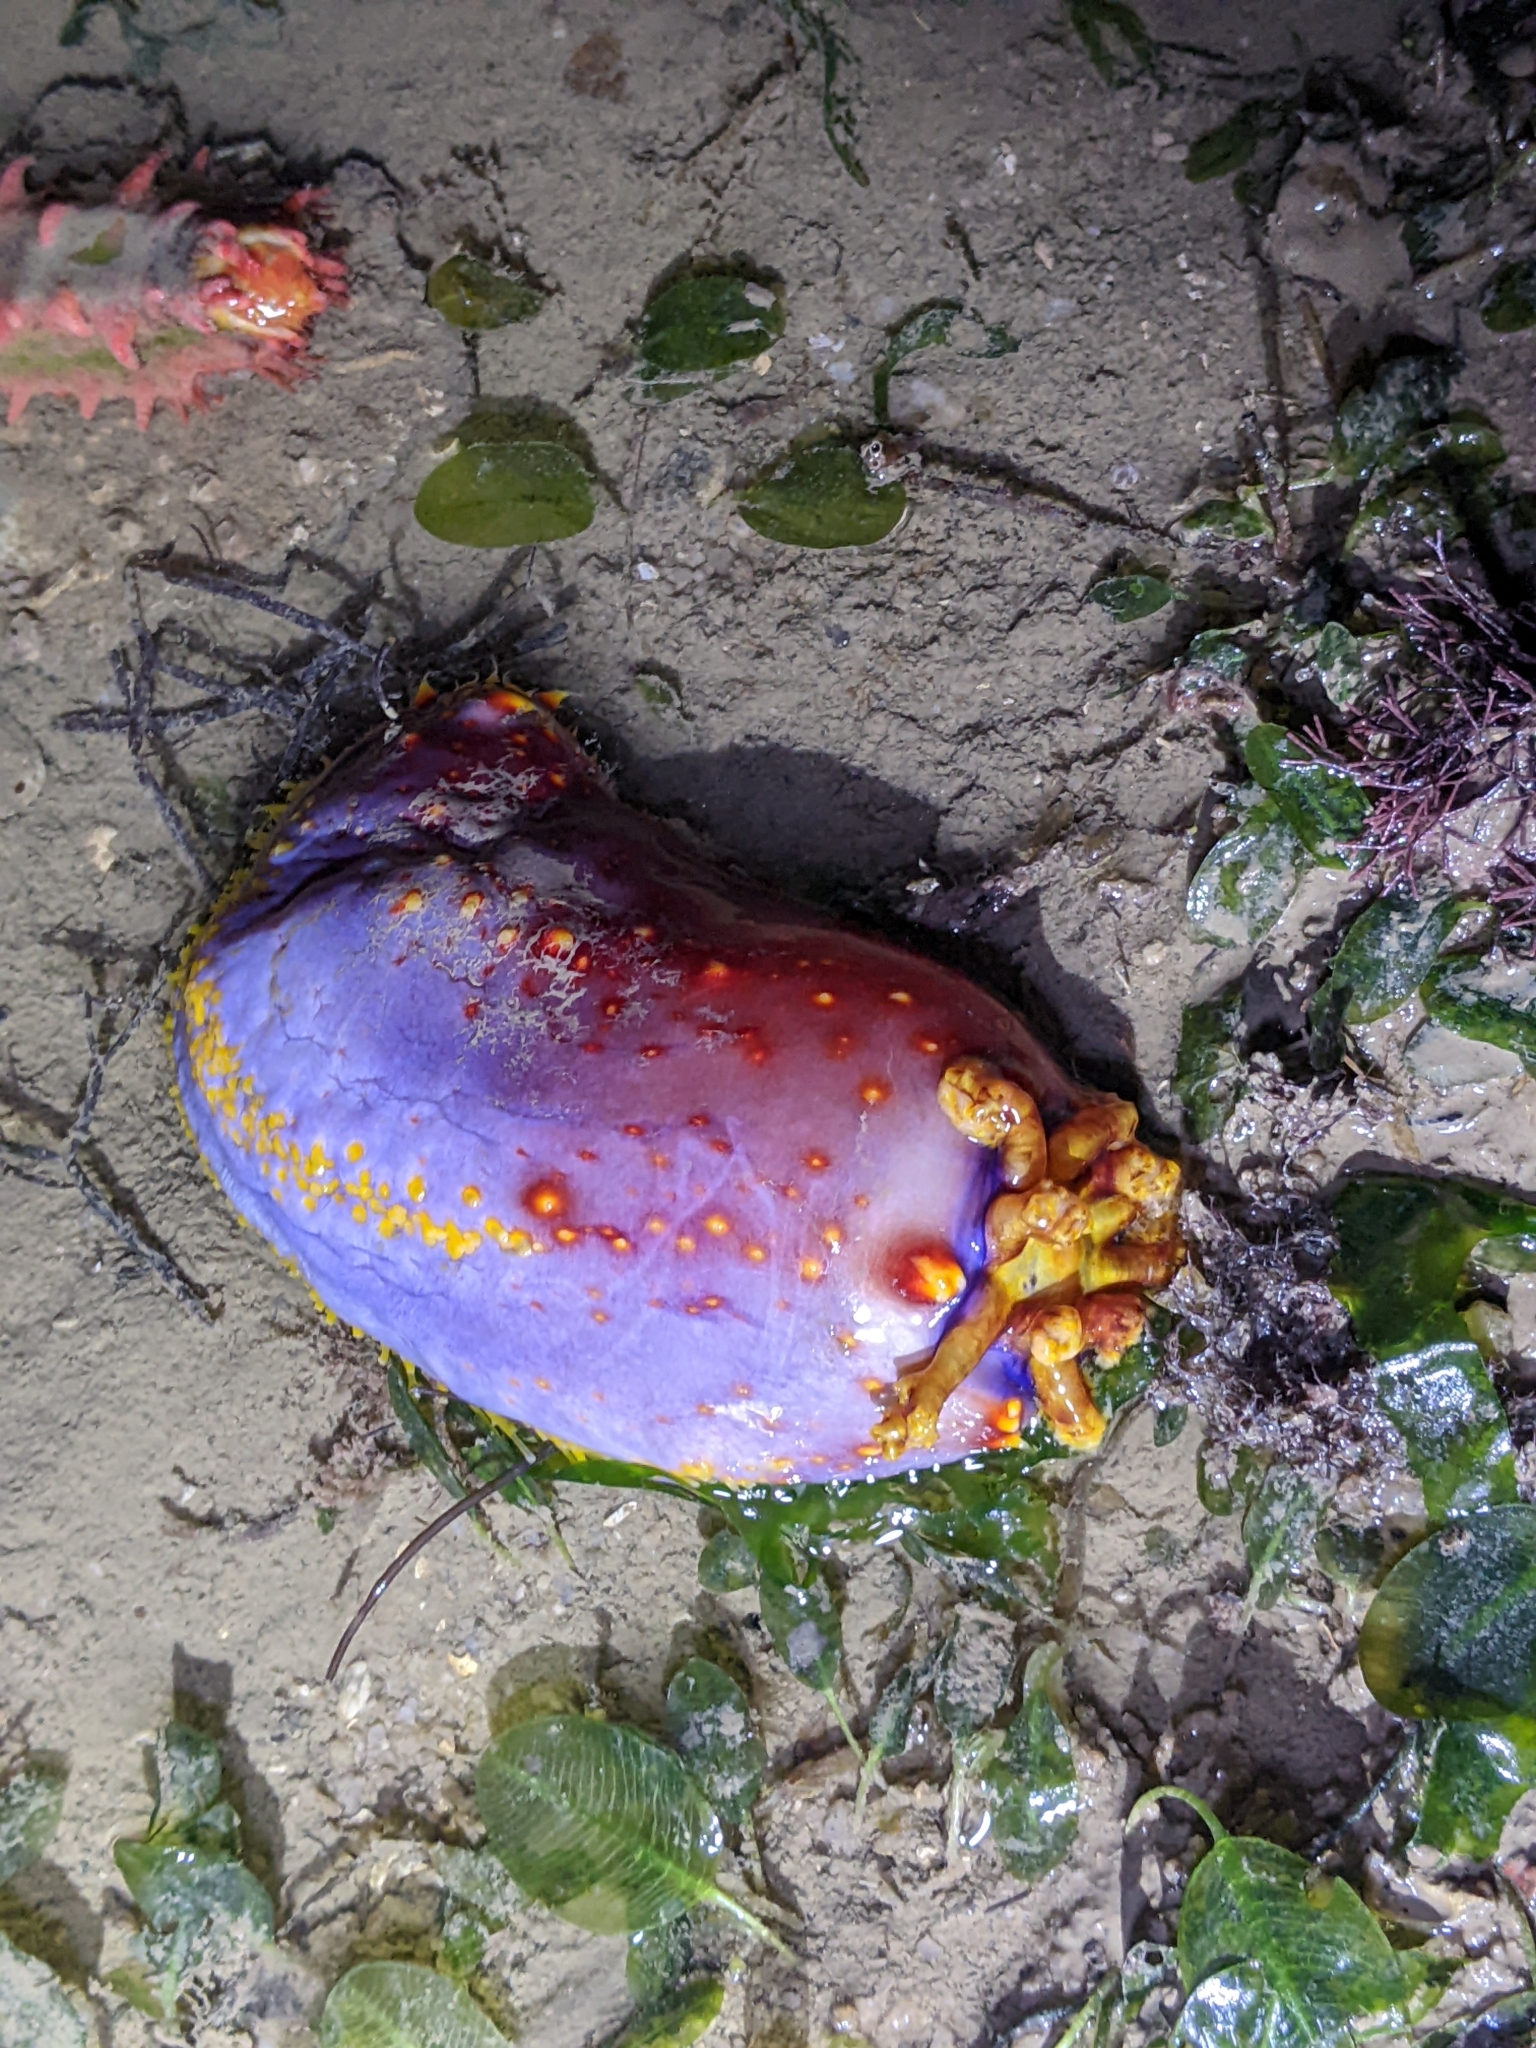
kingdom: Animalia
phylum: Echinodermata
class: Holothuroidea
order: Dendrochirotida
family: Cucumariidae
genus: Pseudocolochirus
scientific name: Pseudocolochirus violaceus
